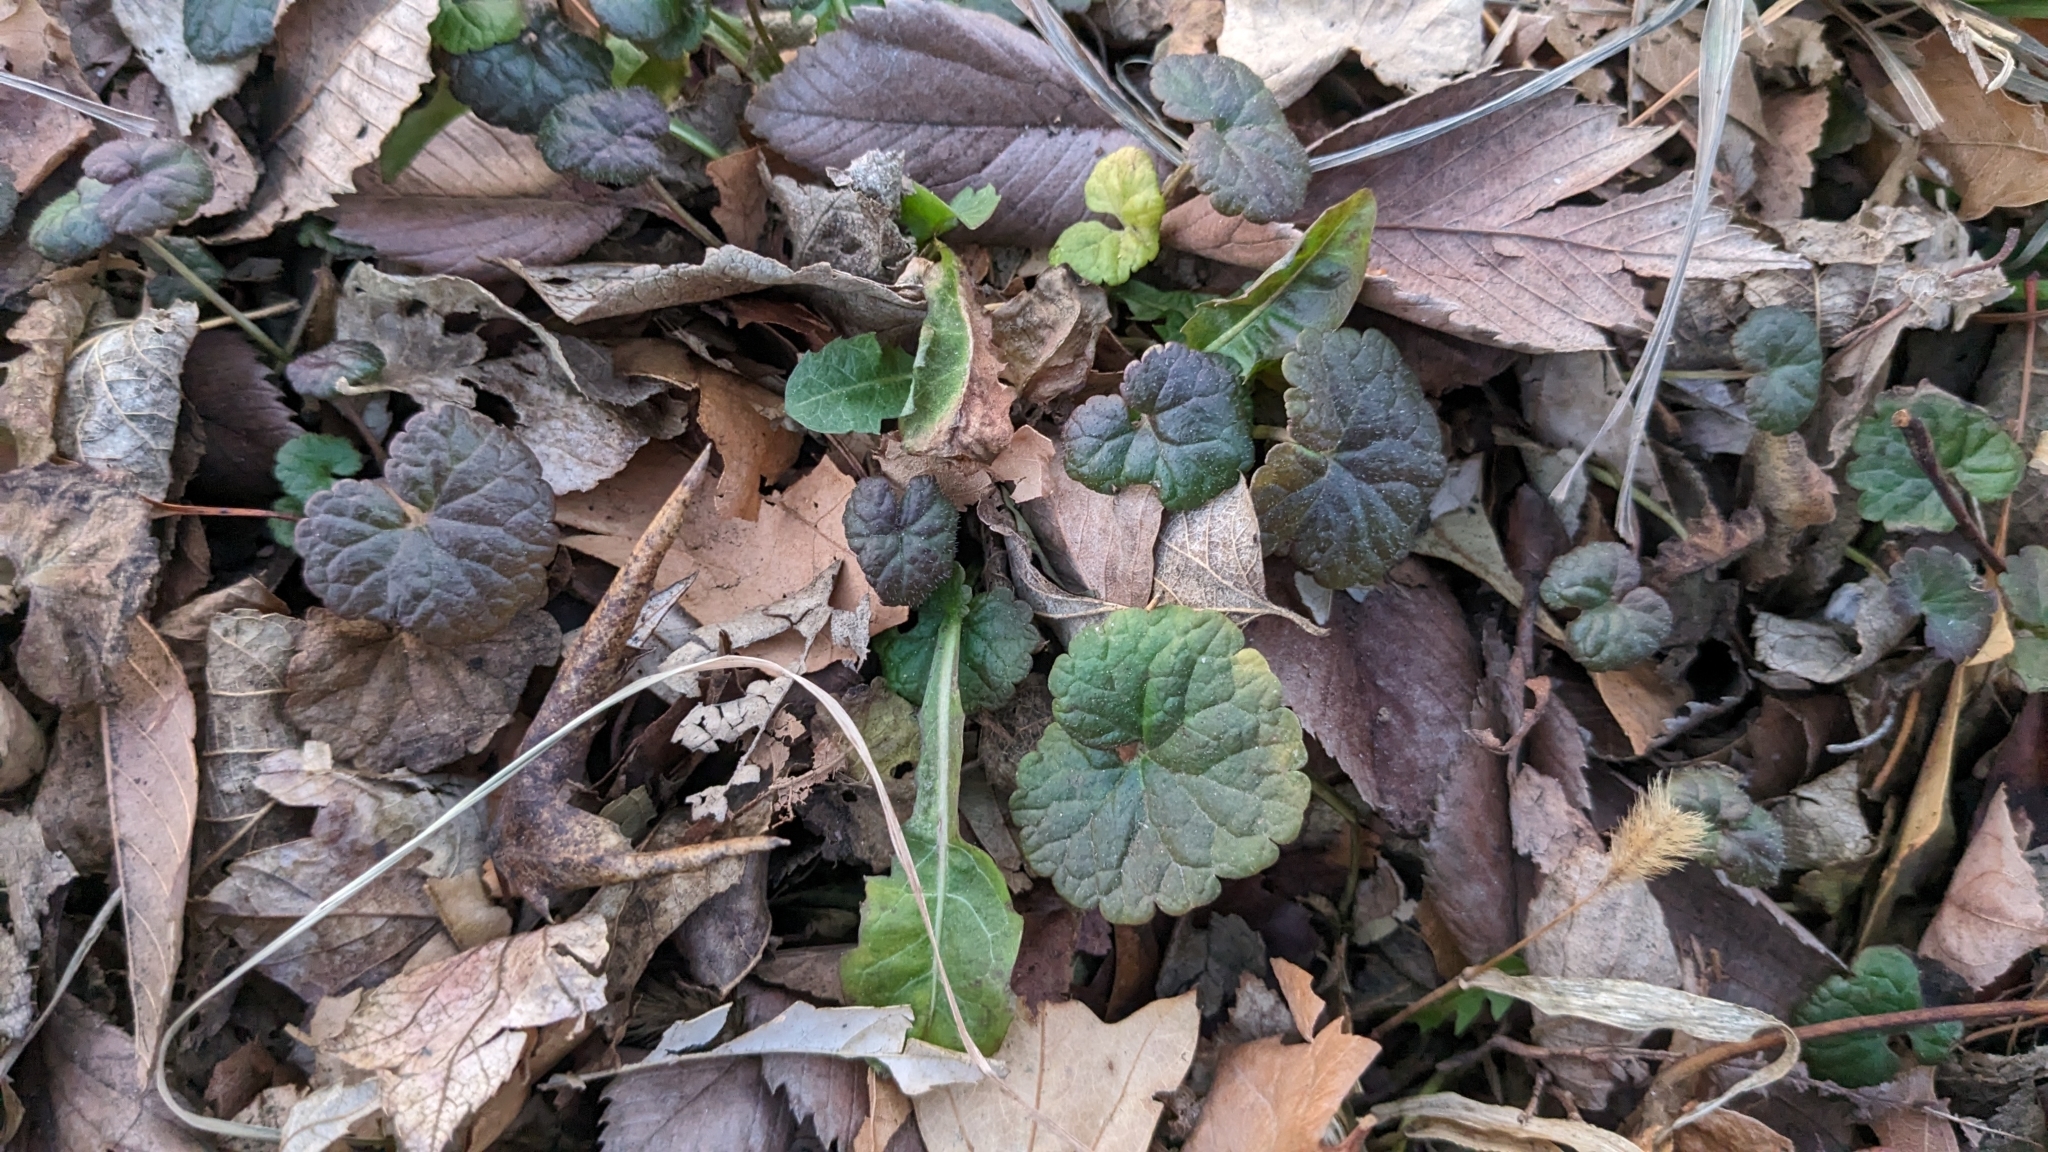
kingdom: Plantae
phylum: Tracheophyta
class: Magnoliopsida
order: Lamiales
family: Lamiaceae
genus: Glechoma
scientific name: Glechoma hederacea
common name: Ground ivy
